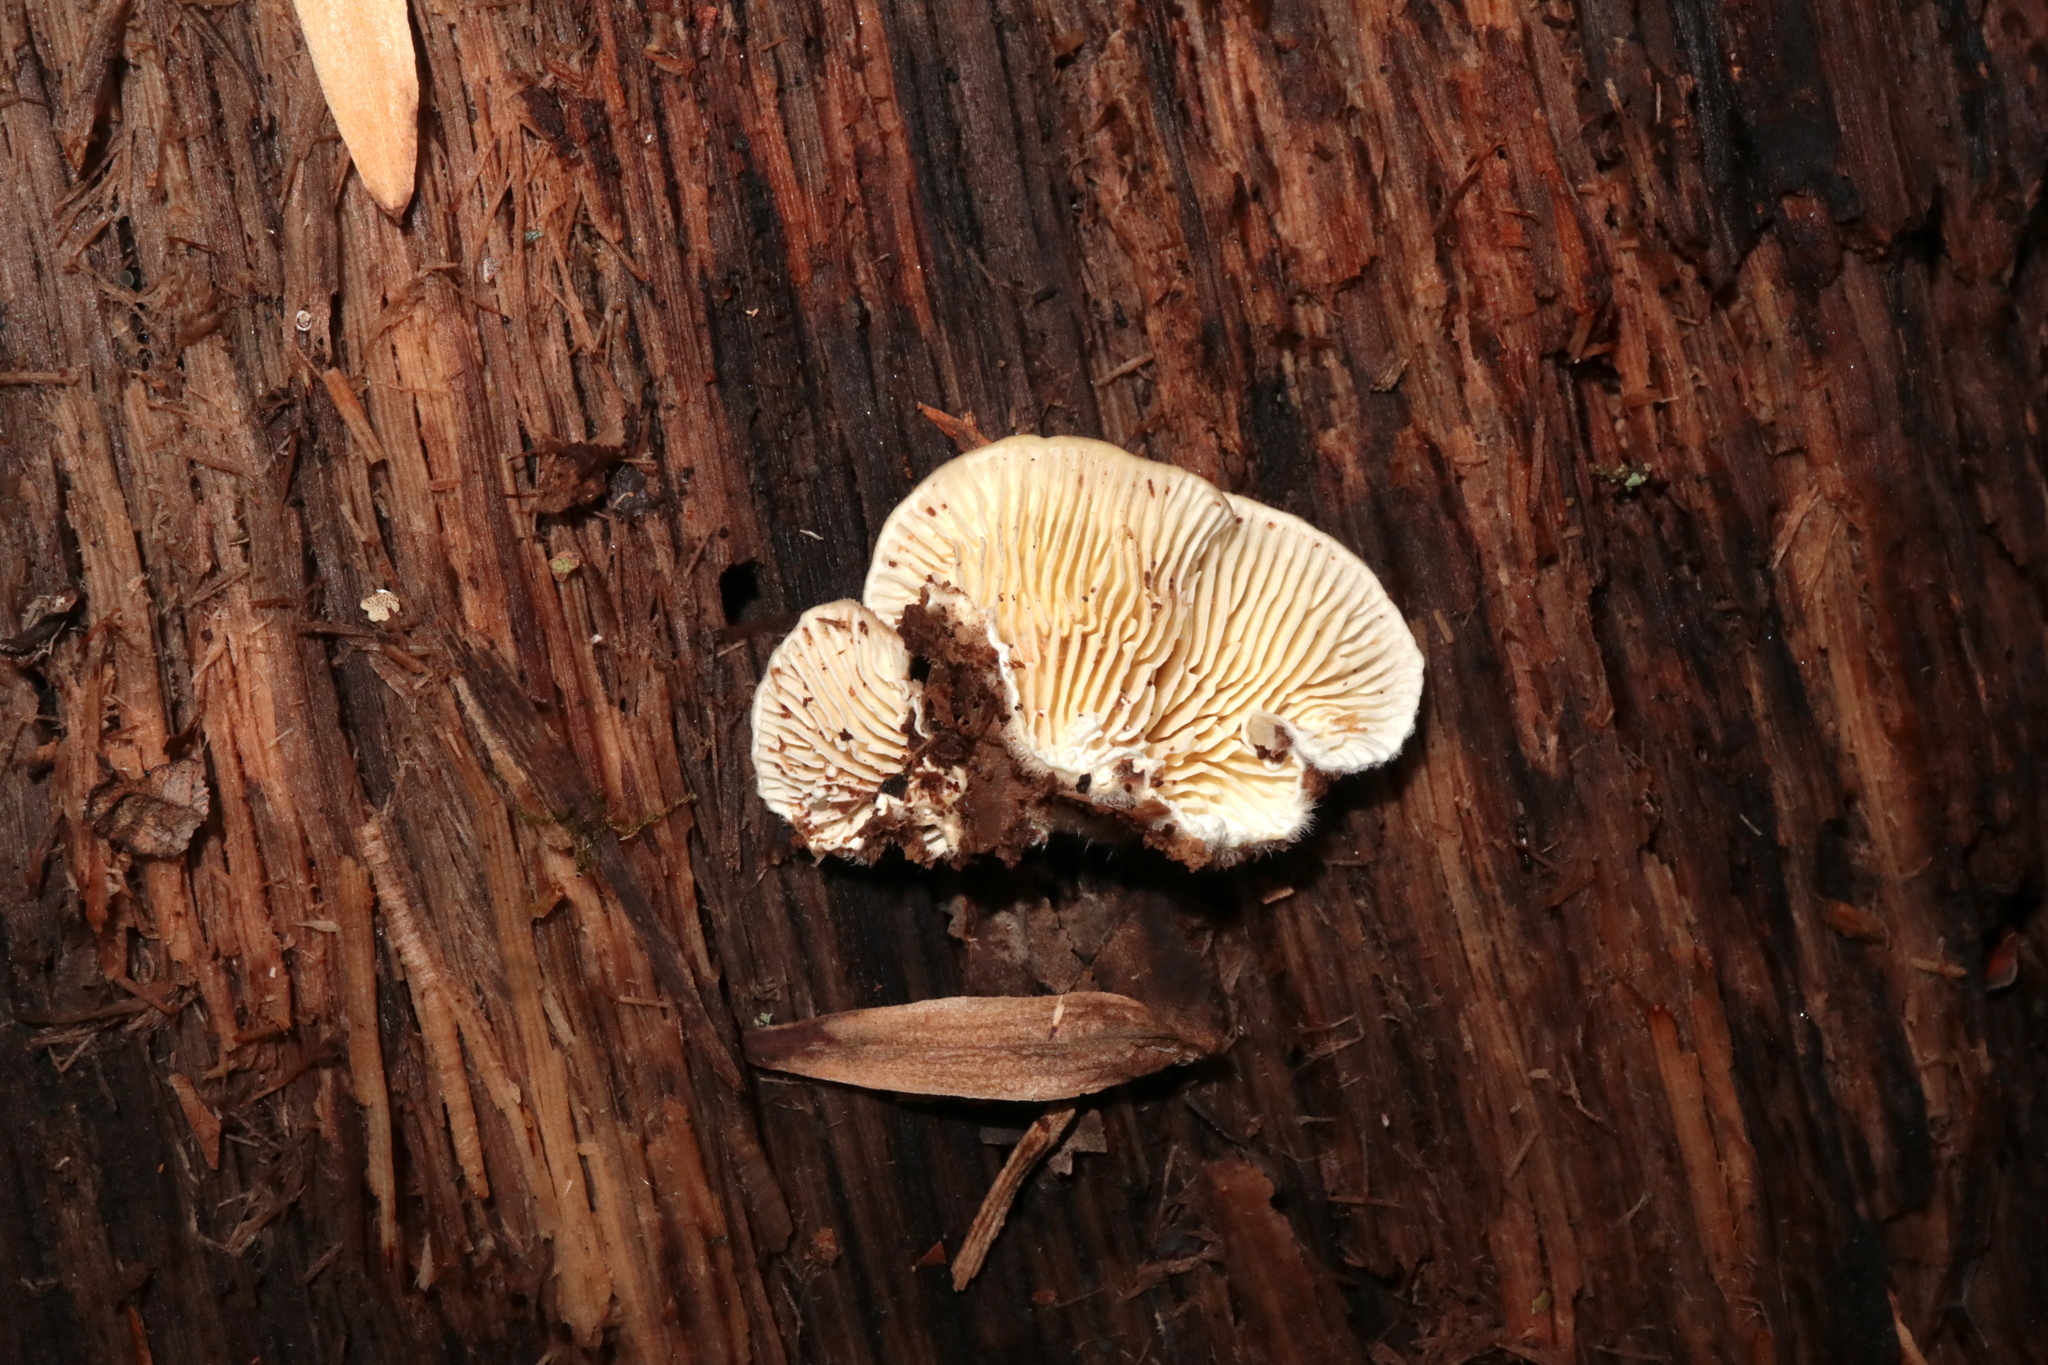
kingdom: Fungi
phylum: Basidiomycota
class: Agaricomycetes
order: Polyporales
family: Polyporaceae
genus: Lenzites
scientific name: Lenzites betulinus
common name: Birch mazegill
